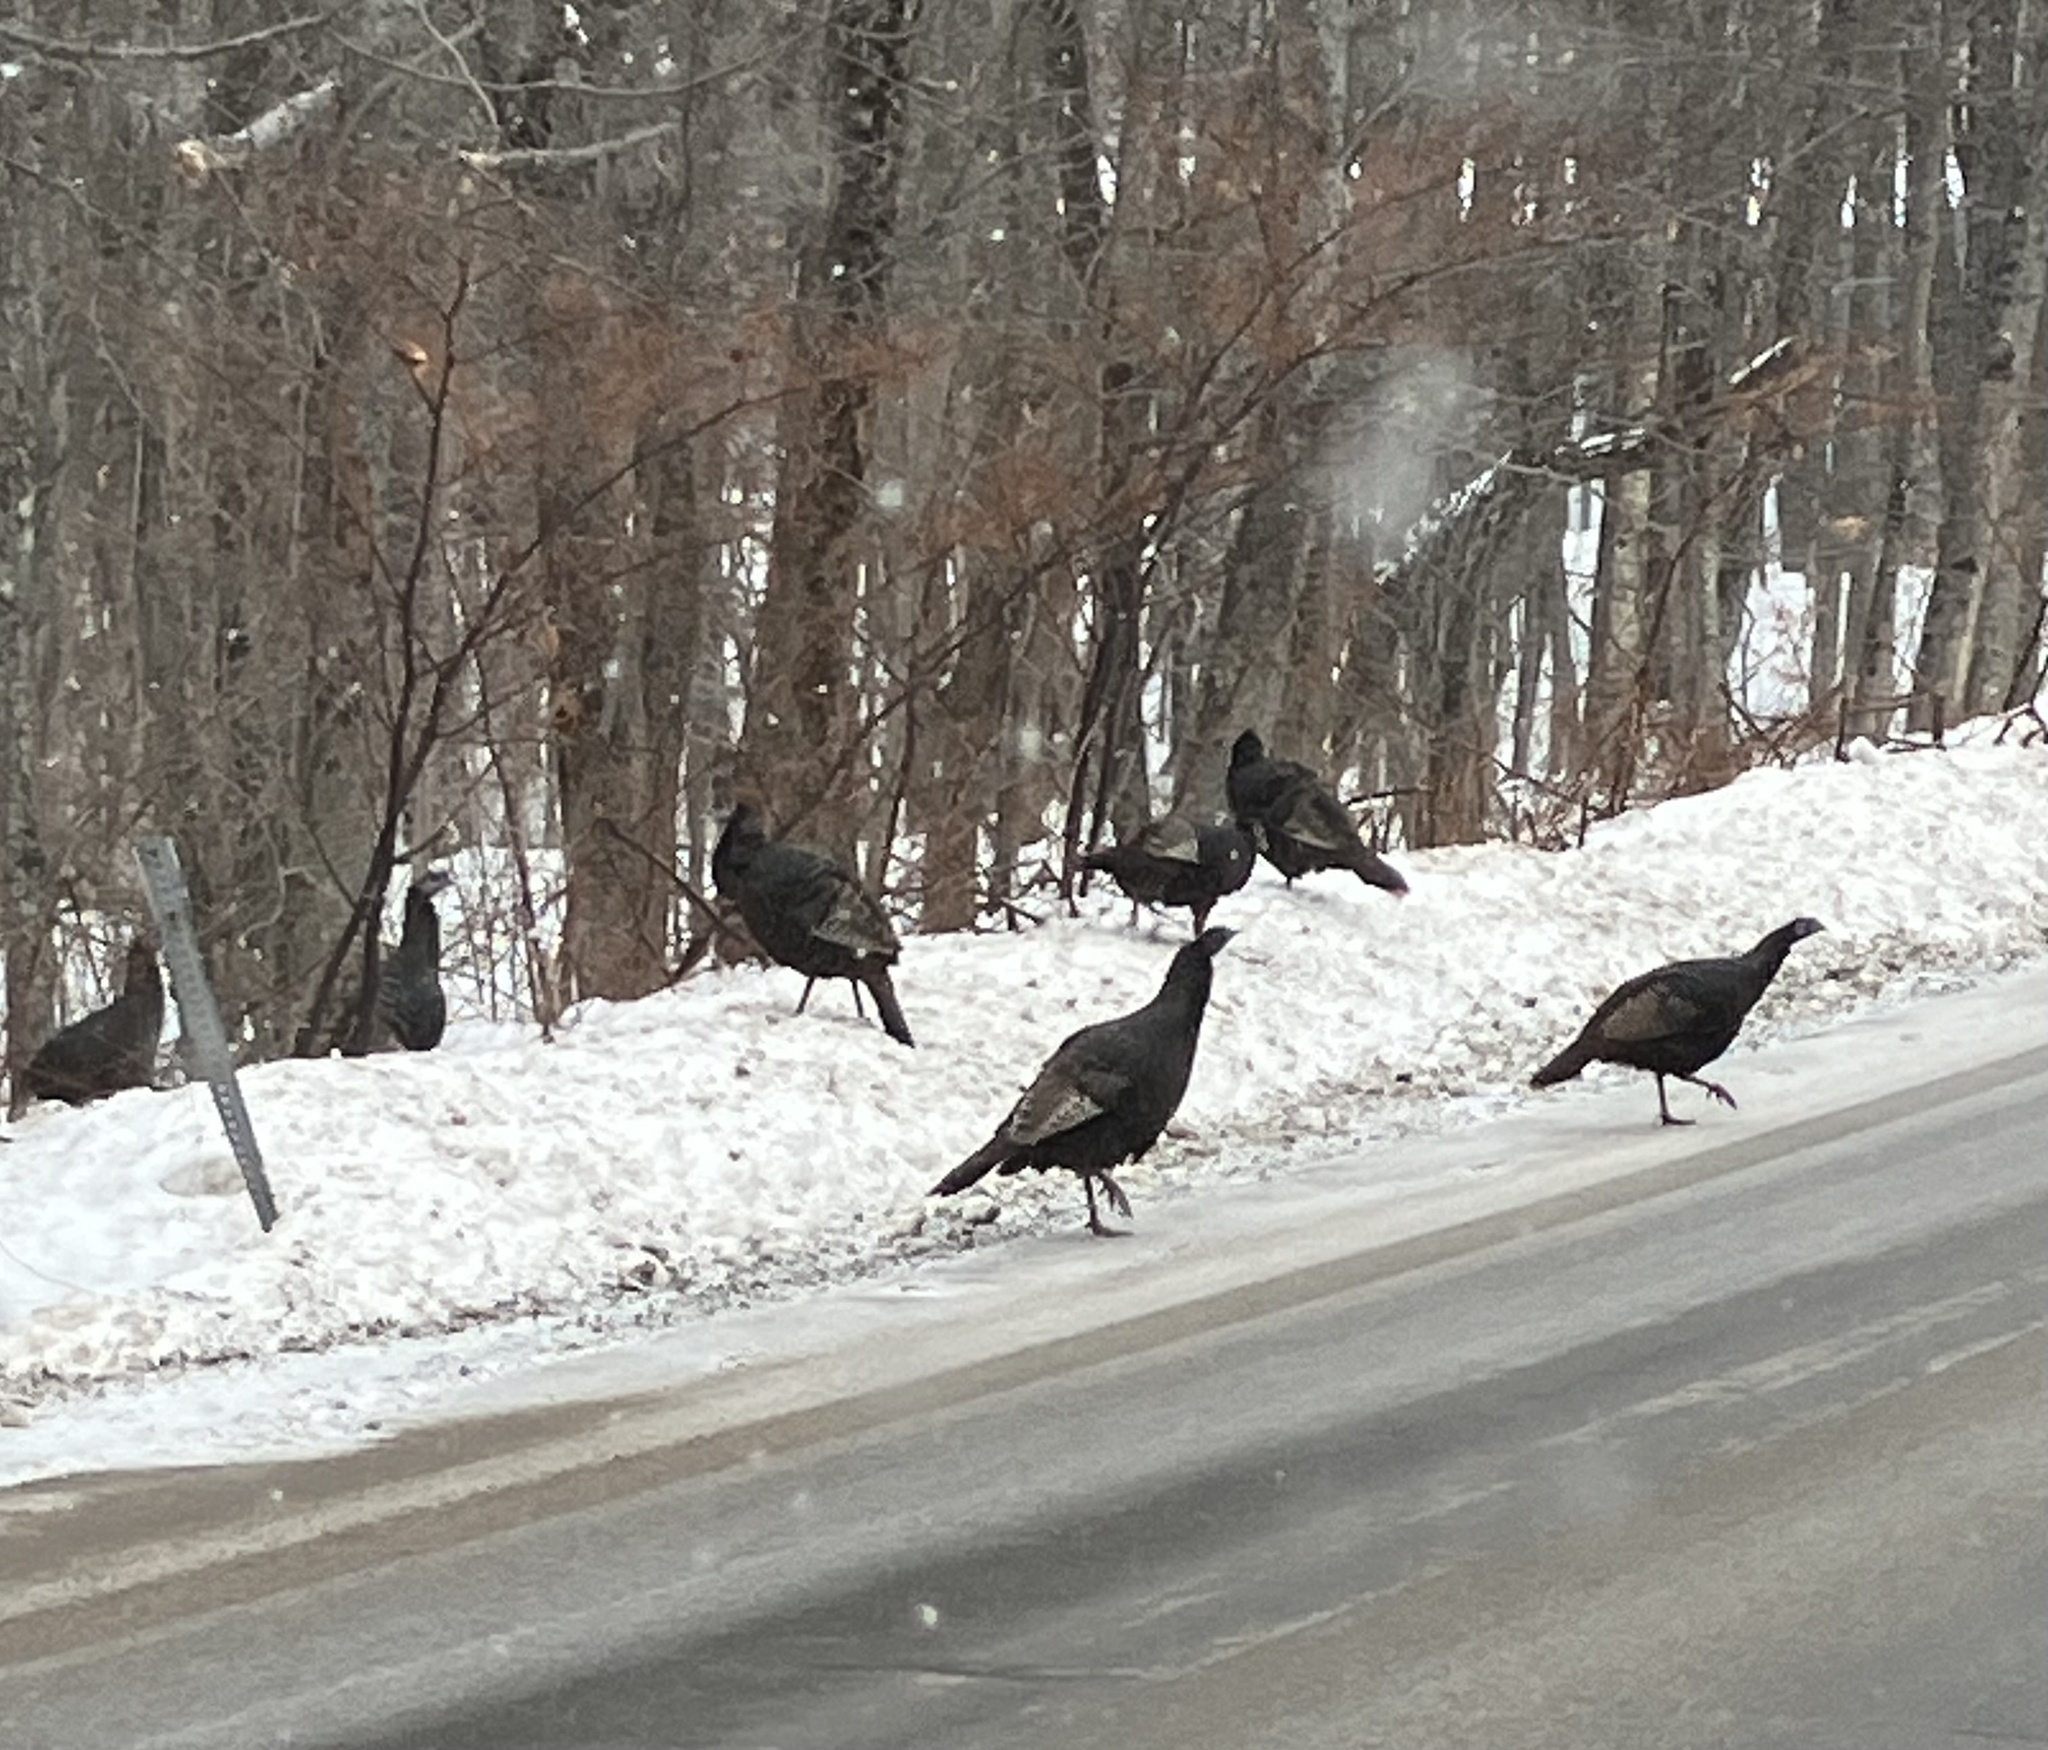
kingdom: Animalia
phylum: Chordata
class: Aves
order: Galliformes
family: Phasianidae
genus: Meleagris
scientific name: Meleagris gallopavo
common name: Wild turkey
